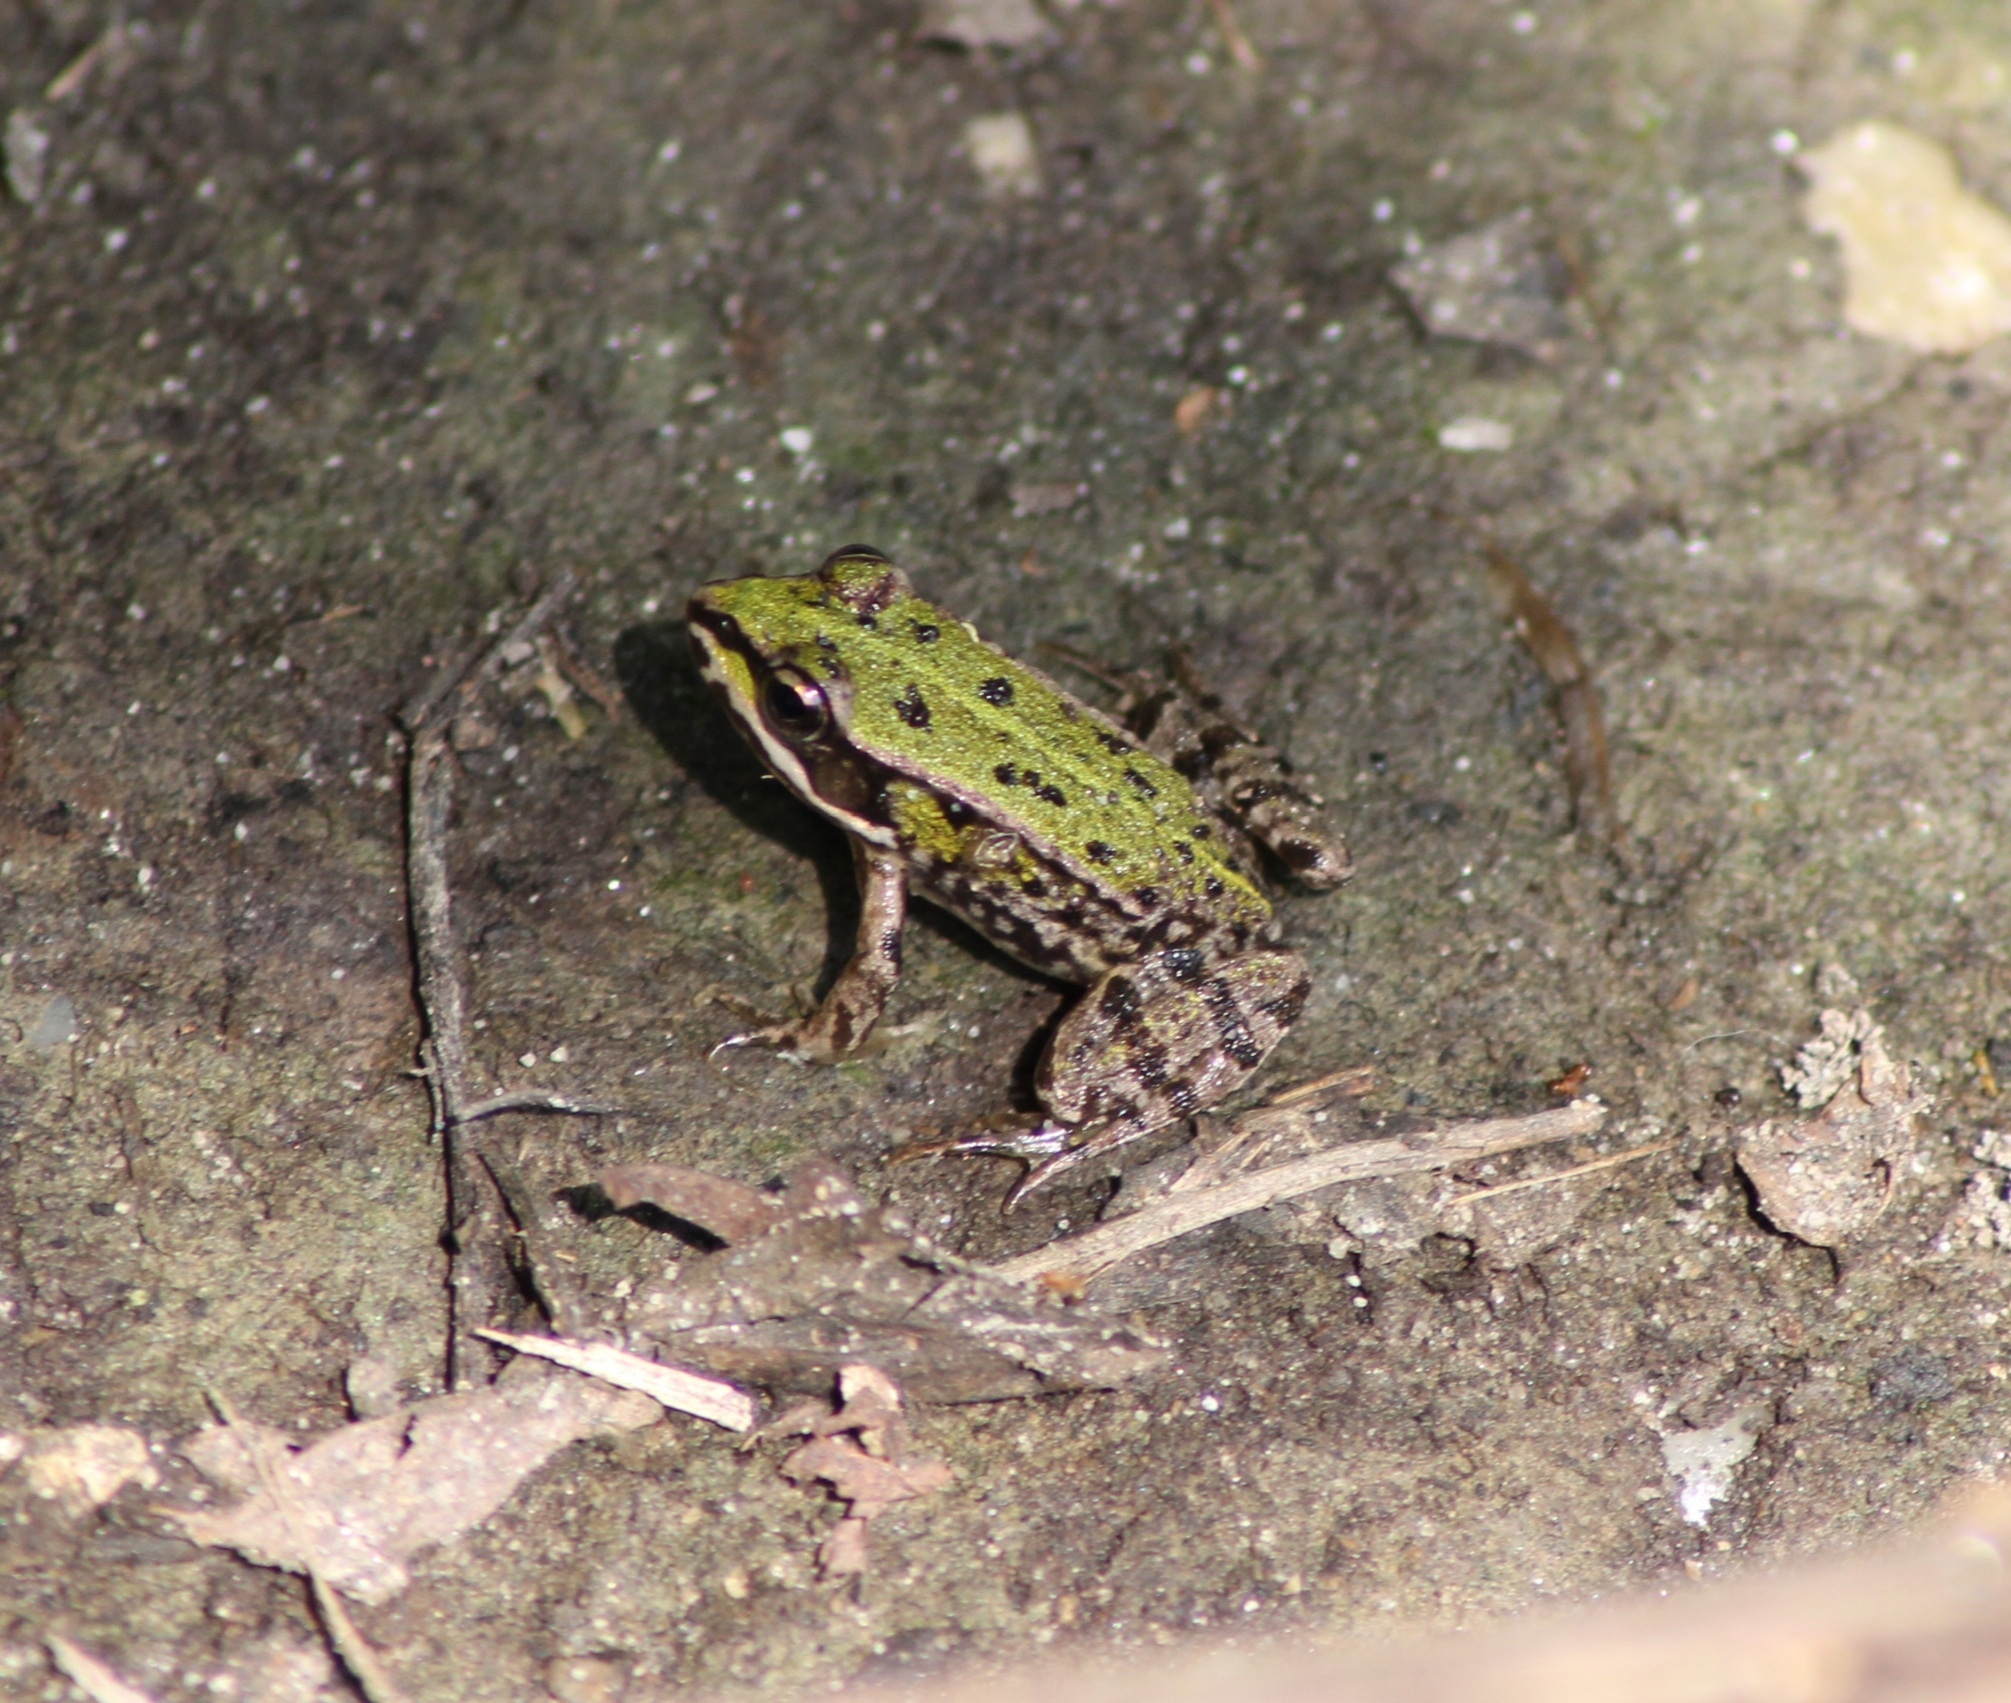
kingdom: Animalia
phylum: Chordata
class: Amphibia
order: Anura
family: Ranidae
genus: Pelophylax
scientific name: Pelophylax
